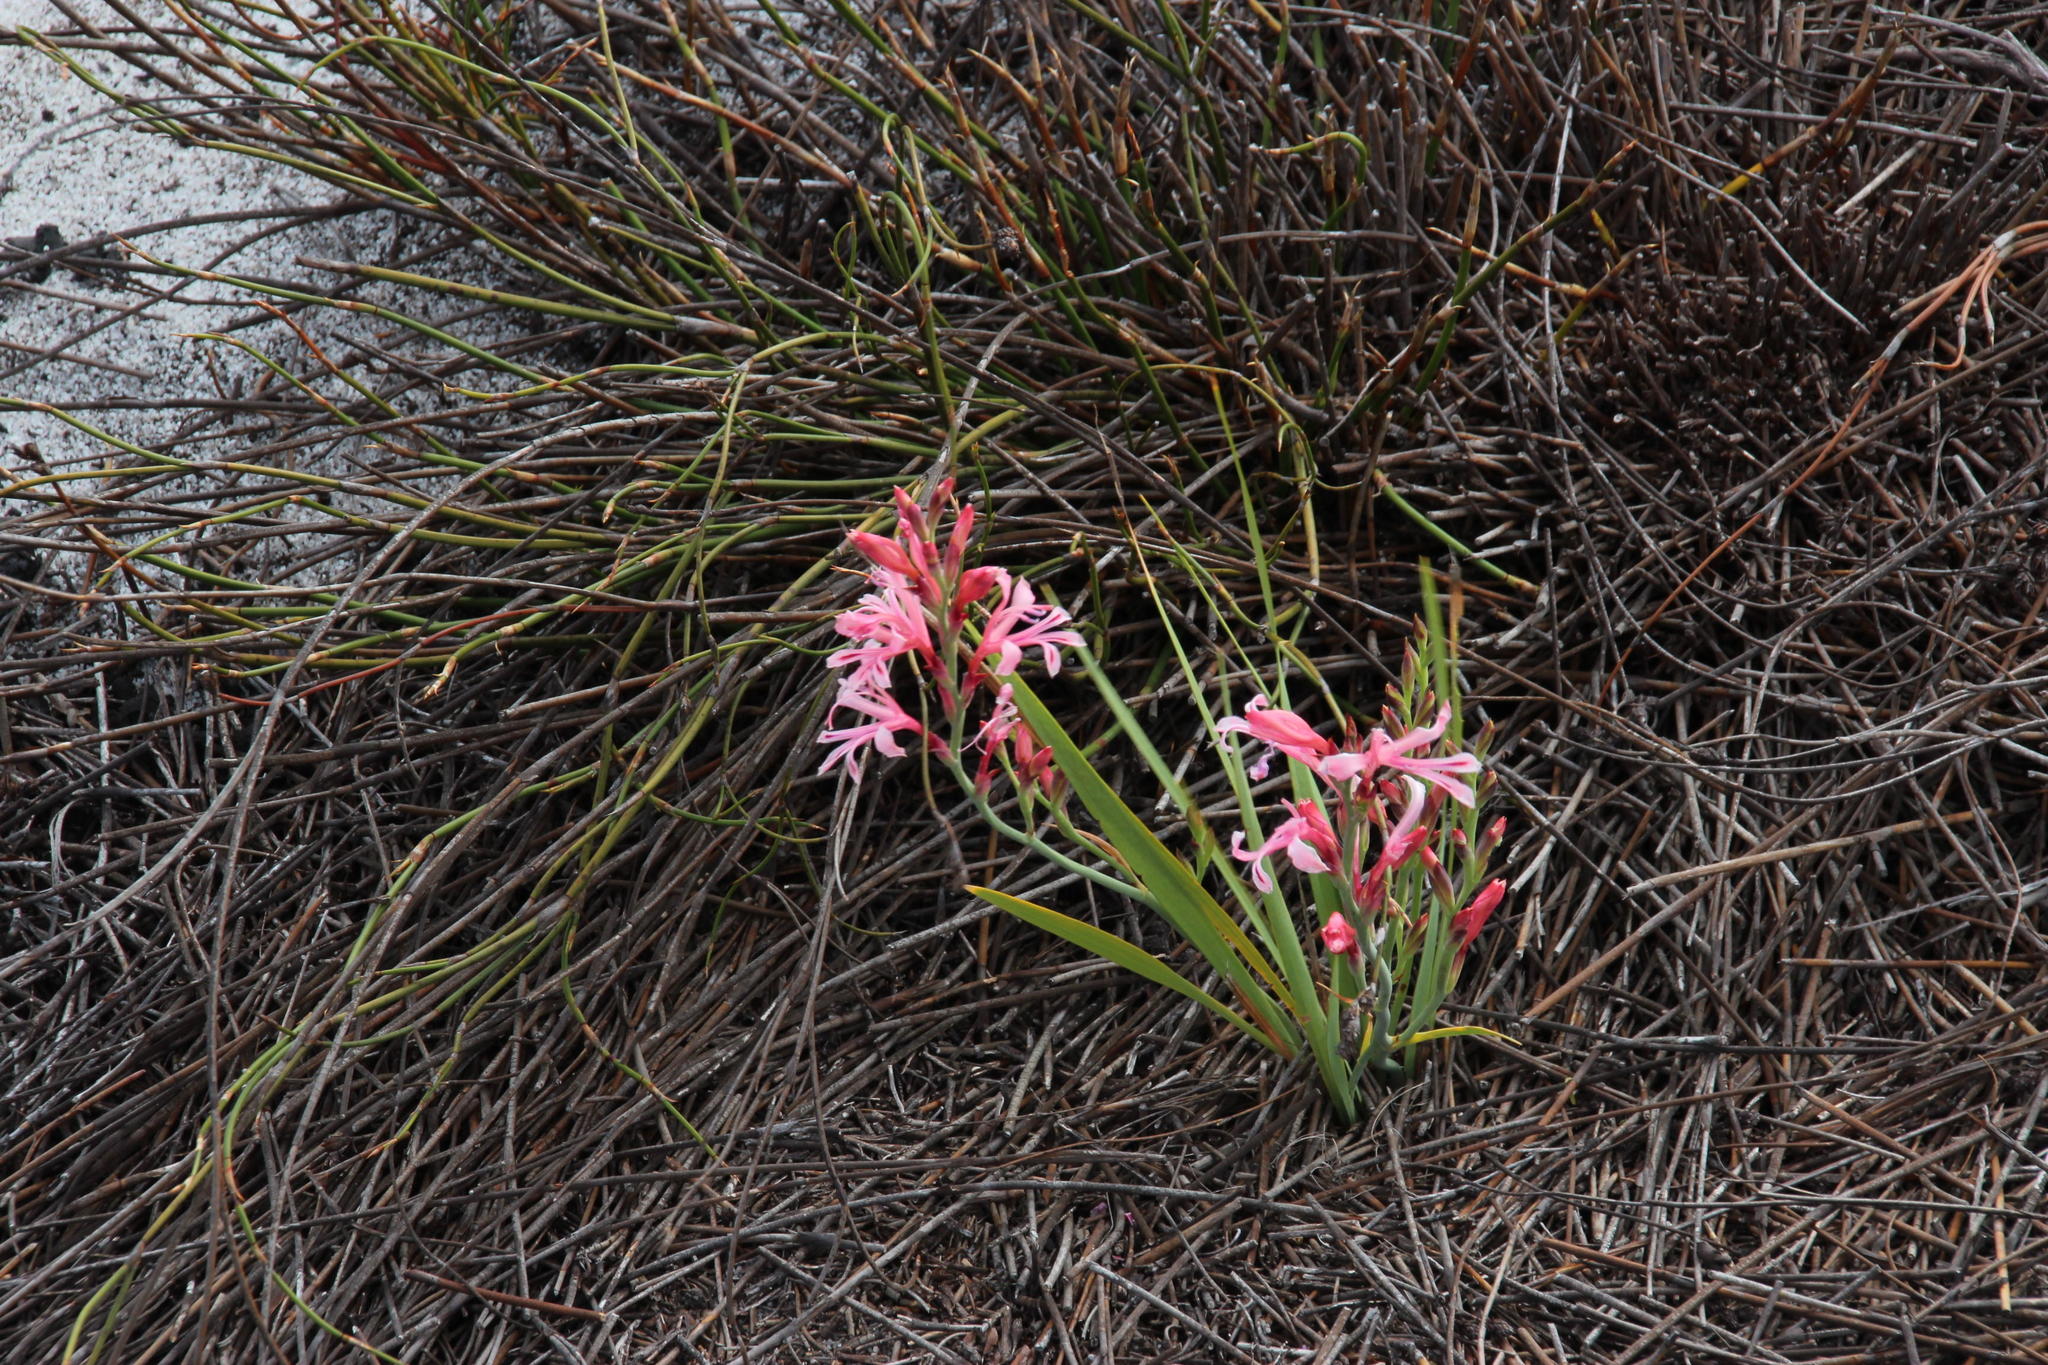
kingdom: Plantae
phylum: Tracheophyta
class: Liliopsida
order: Asparagales
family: Iridaceae
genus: Tritoniopsis
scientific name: Tritoniopsis ramosa
